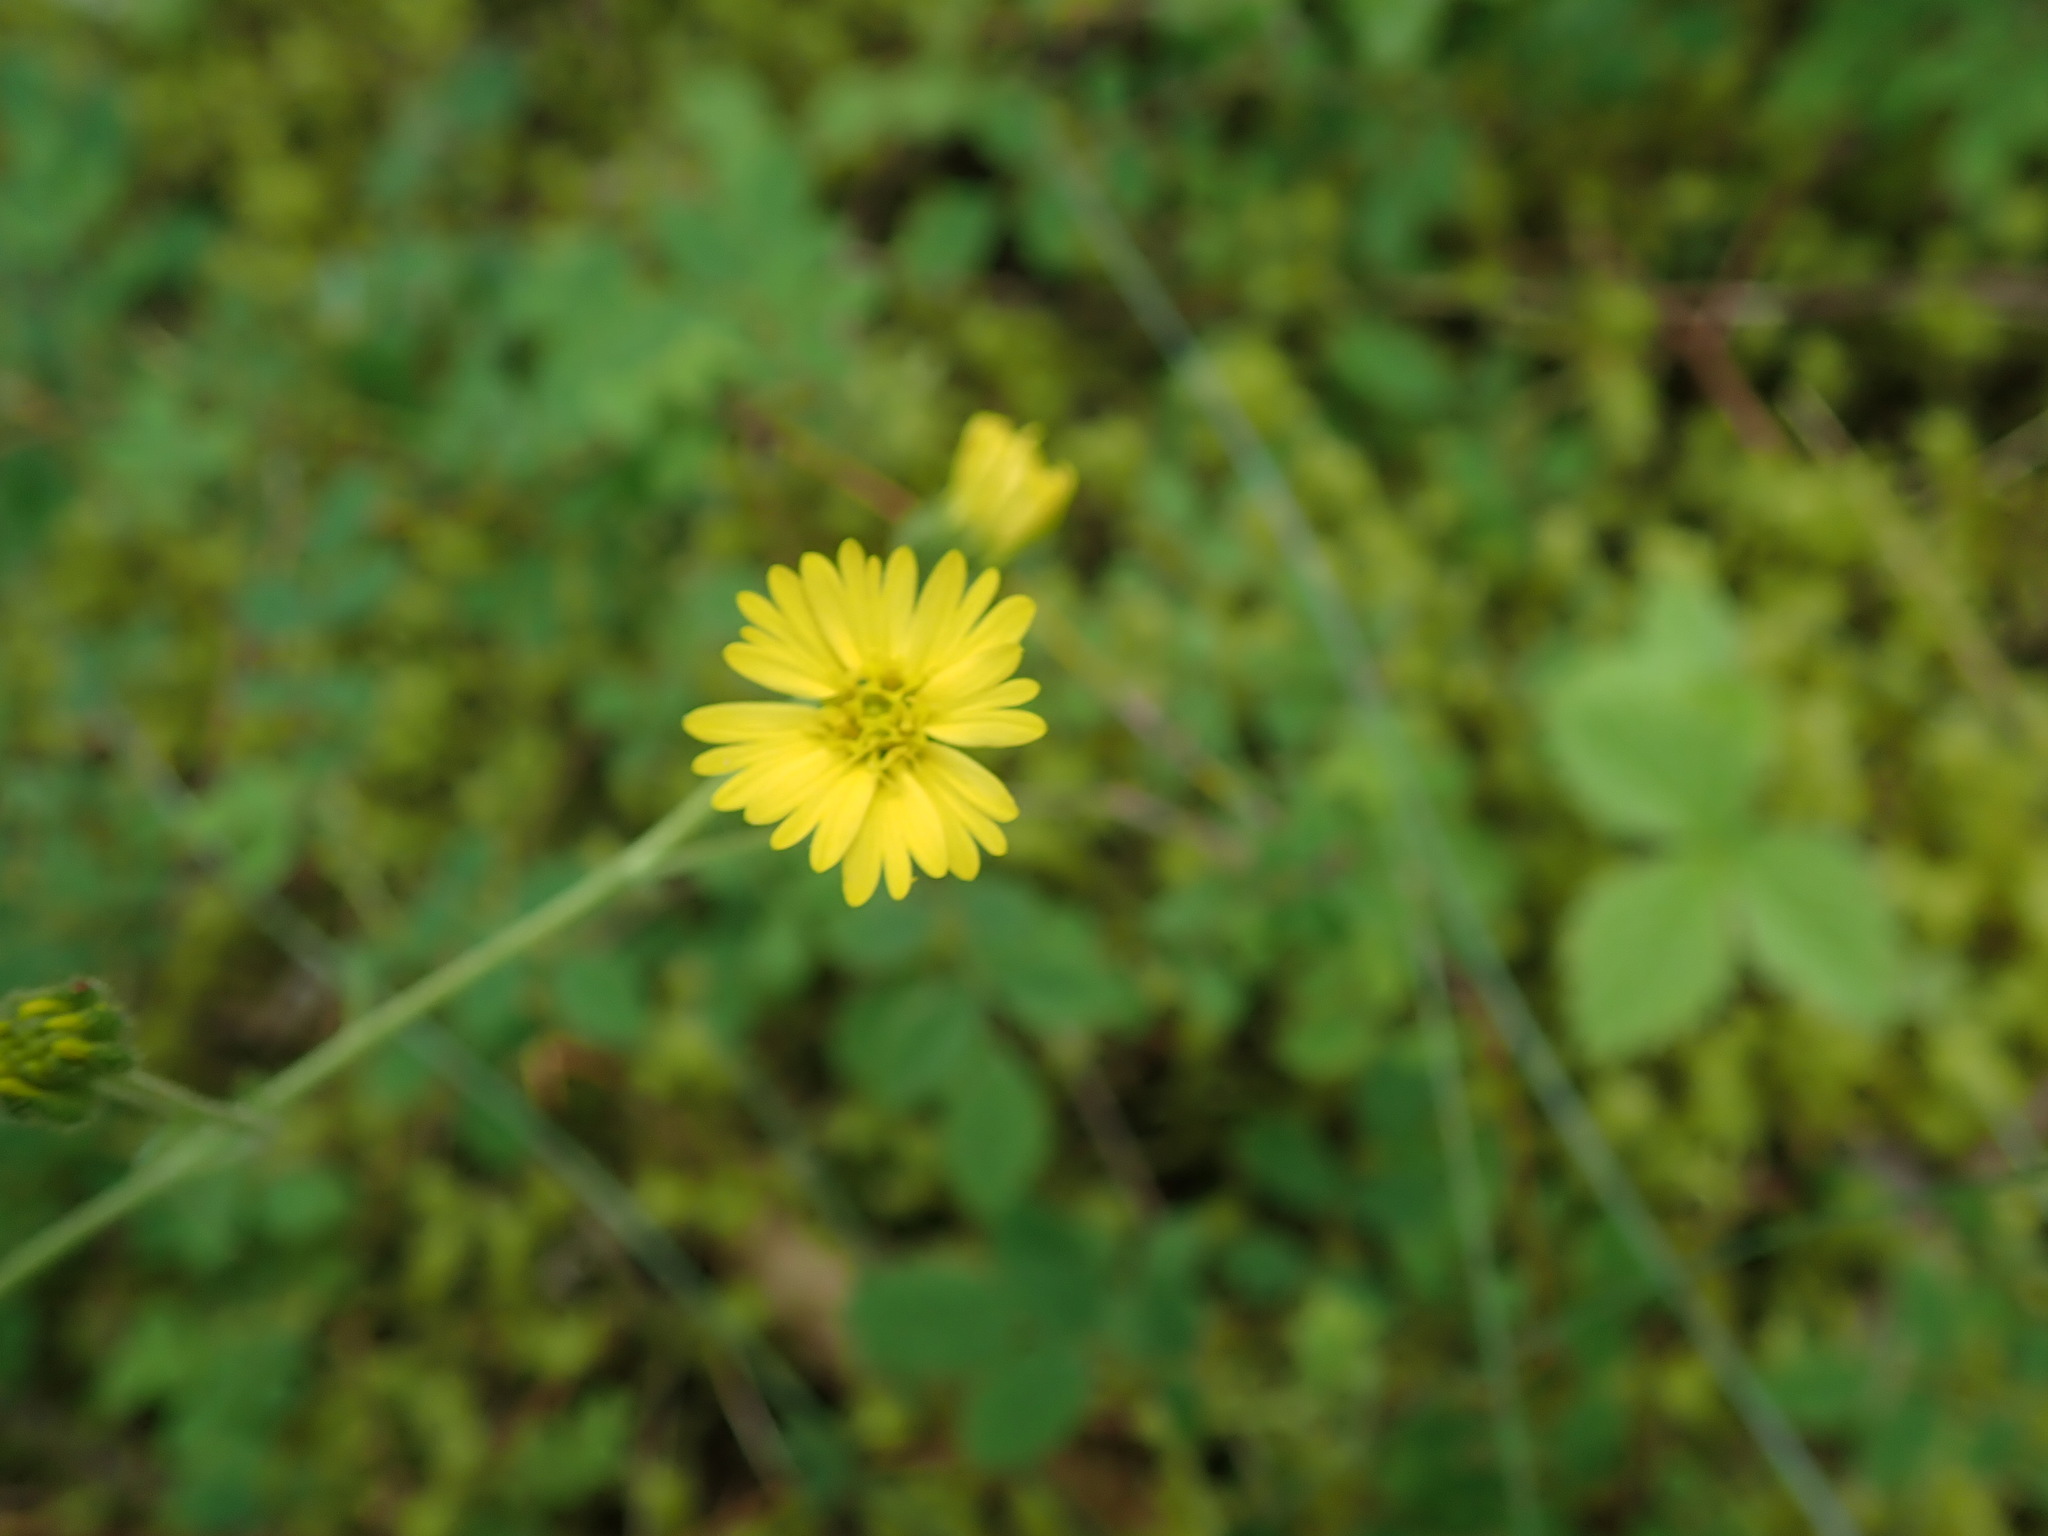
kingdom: Plantae
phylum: Tracheophyta
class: Magnoliopsida
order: Asterales
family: Asteraceae
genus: Anisocarpus
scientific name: Anisocarpus madioides
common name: Woodland madia
